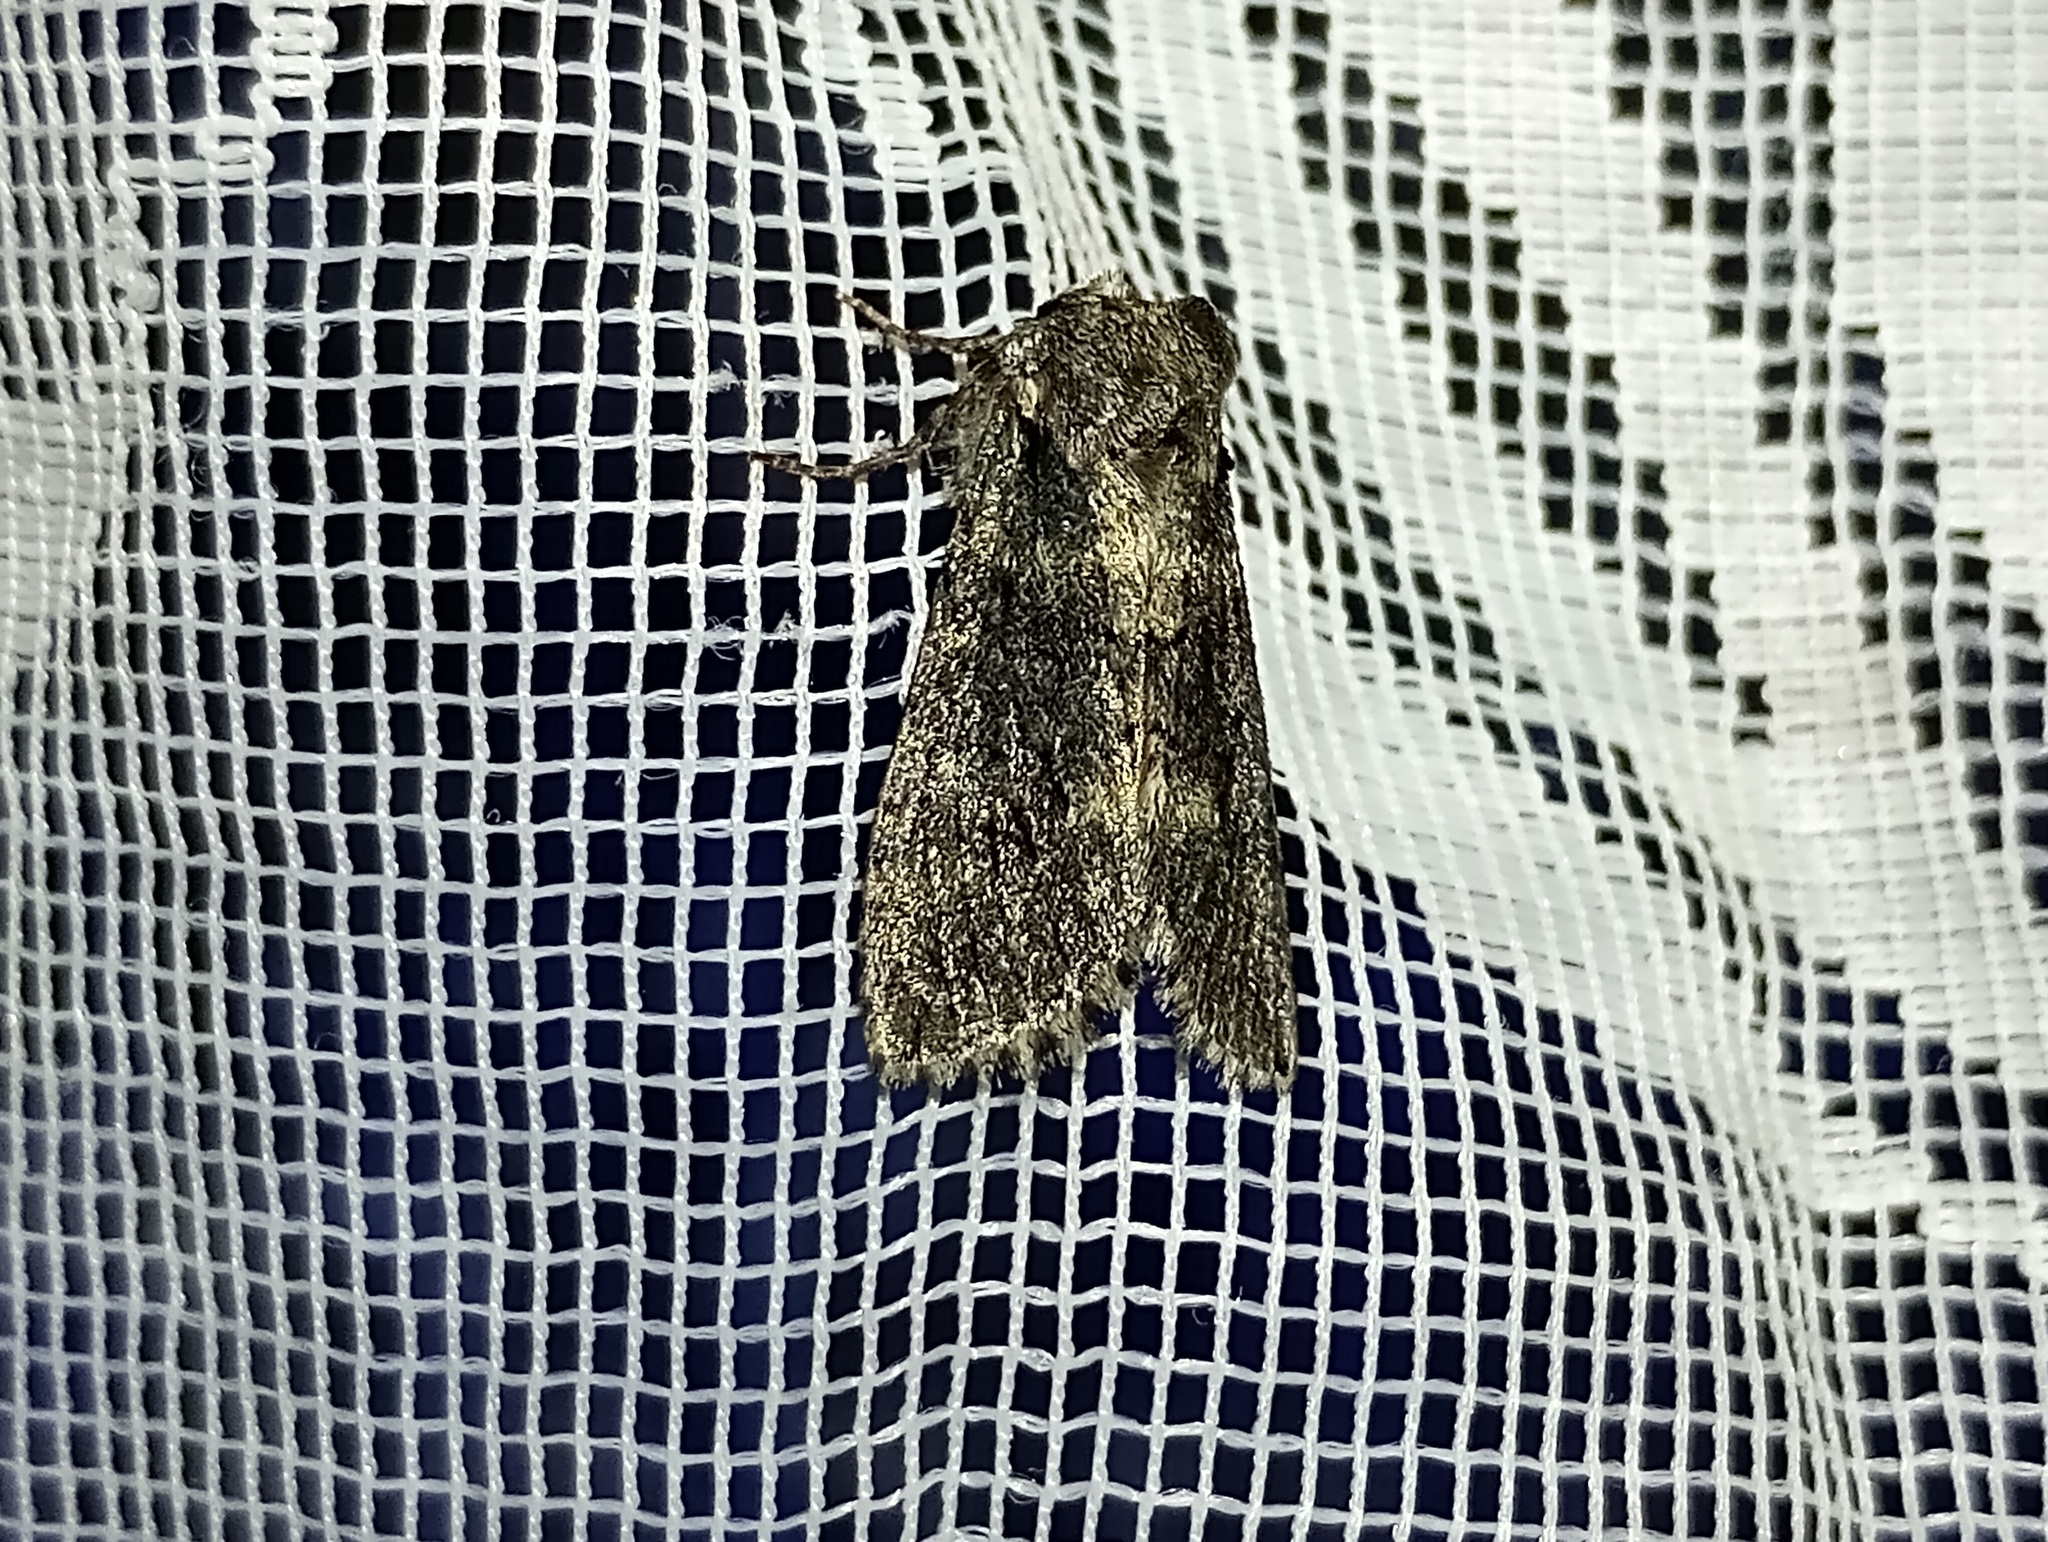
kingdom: Animalia
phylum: Arthropoda
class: Insecta
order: Lepidoptera
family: Drepanidae
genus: Polyploca
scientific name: Polyploca ridens
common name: Frosted green
